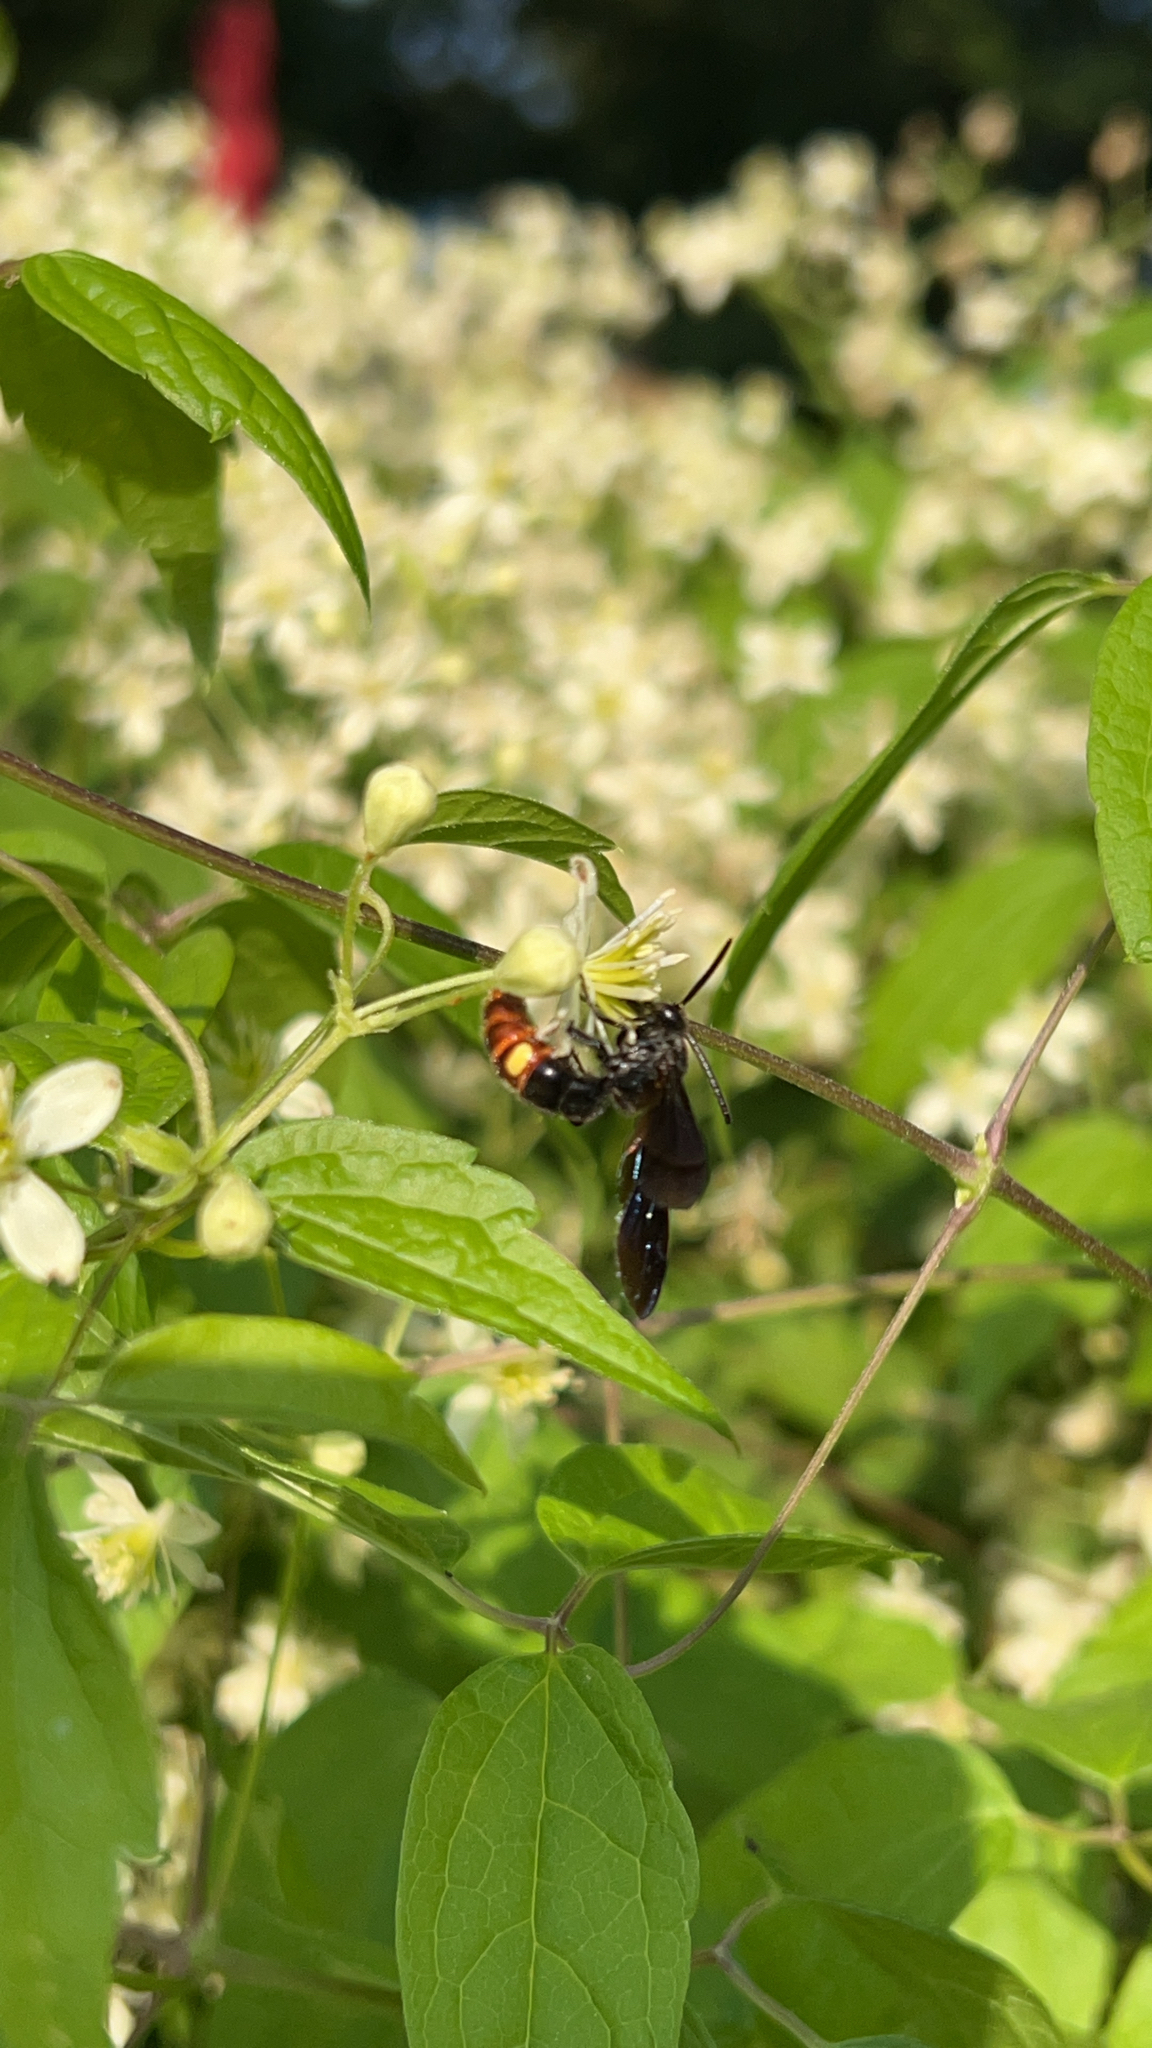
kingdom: Animalia
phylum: Arthropoda
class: Insecta
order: Hymenoptera
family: Scoliidae
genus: Scolia
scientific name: Scolia dubia
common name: Blue-winged scoliid wasp
